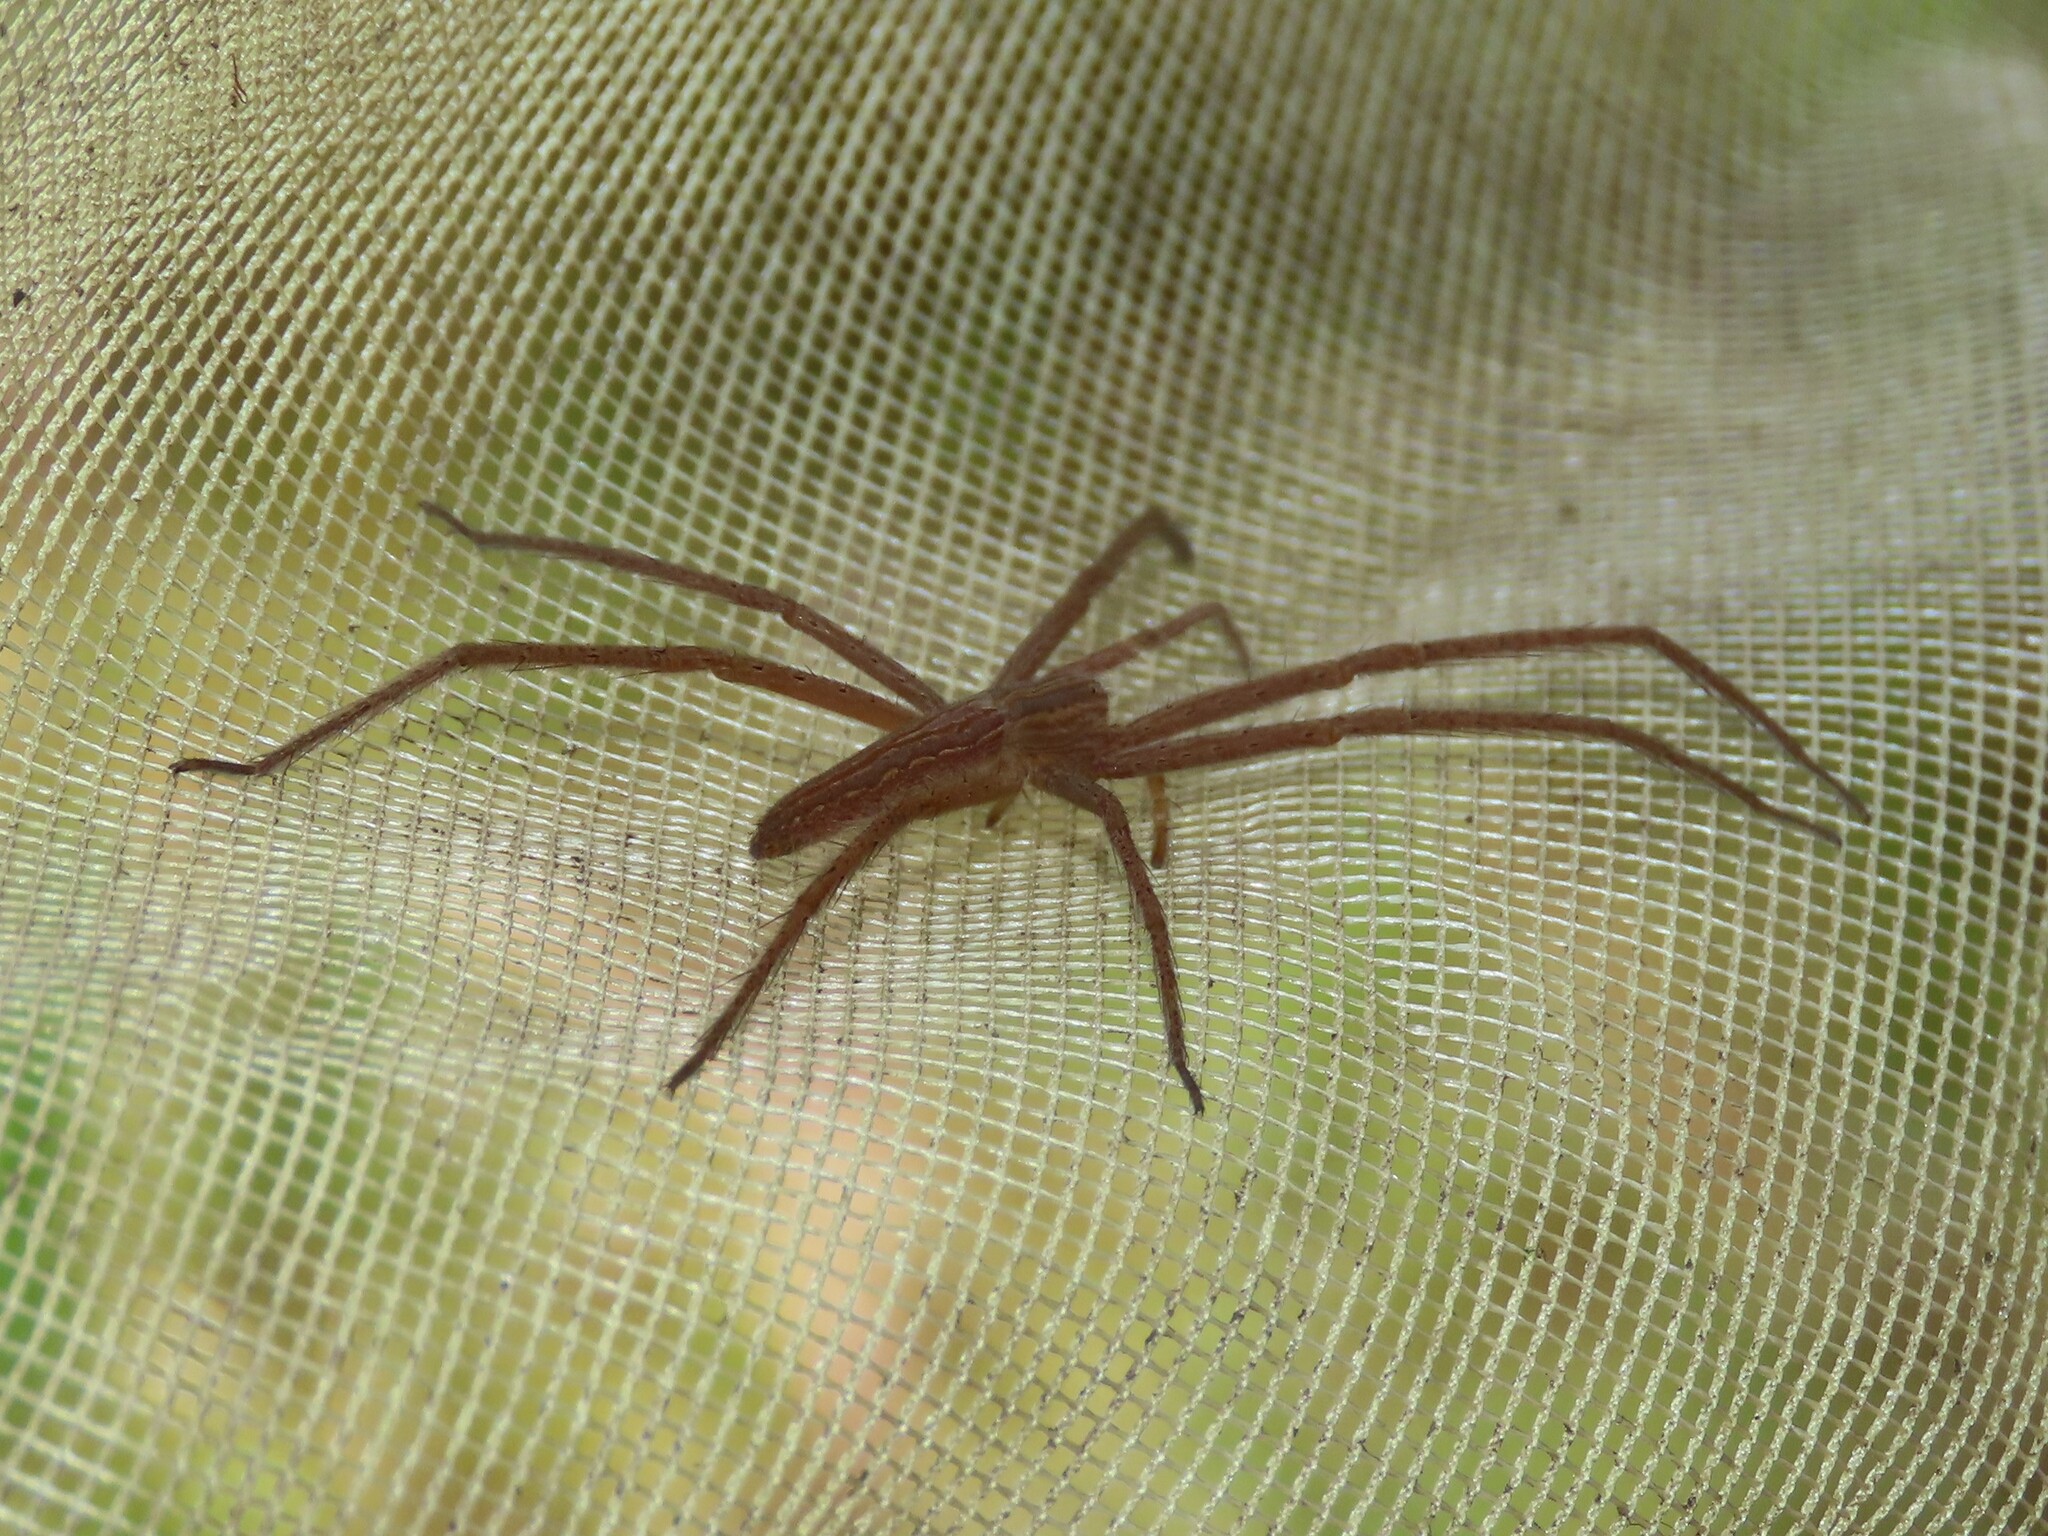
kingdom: Animalia
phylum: Arthropoda
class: Arachnida
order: Araneae
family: Pisauridae
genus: Pisaurina
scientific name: Pisaurina undulata
